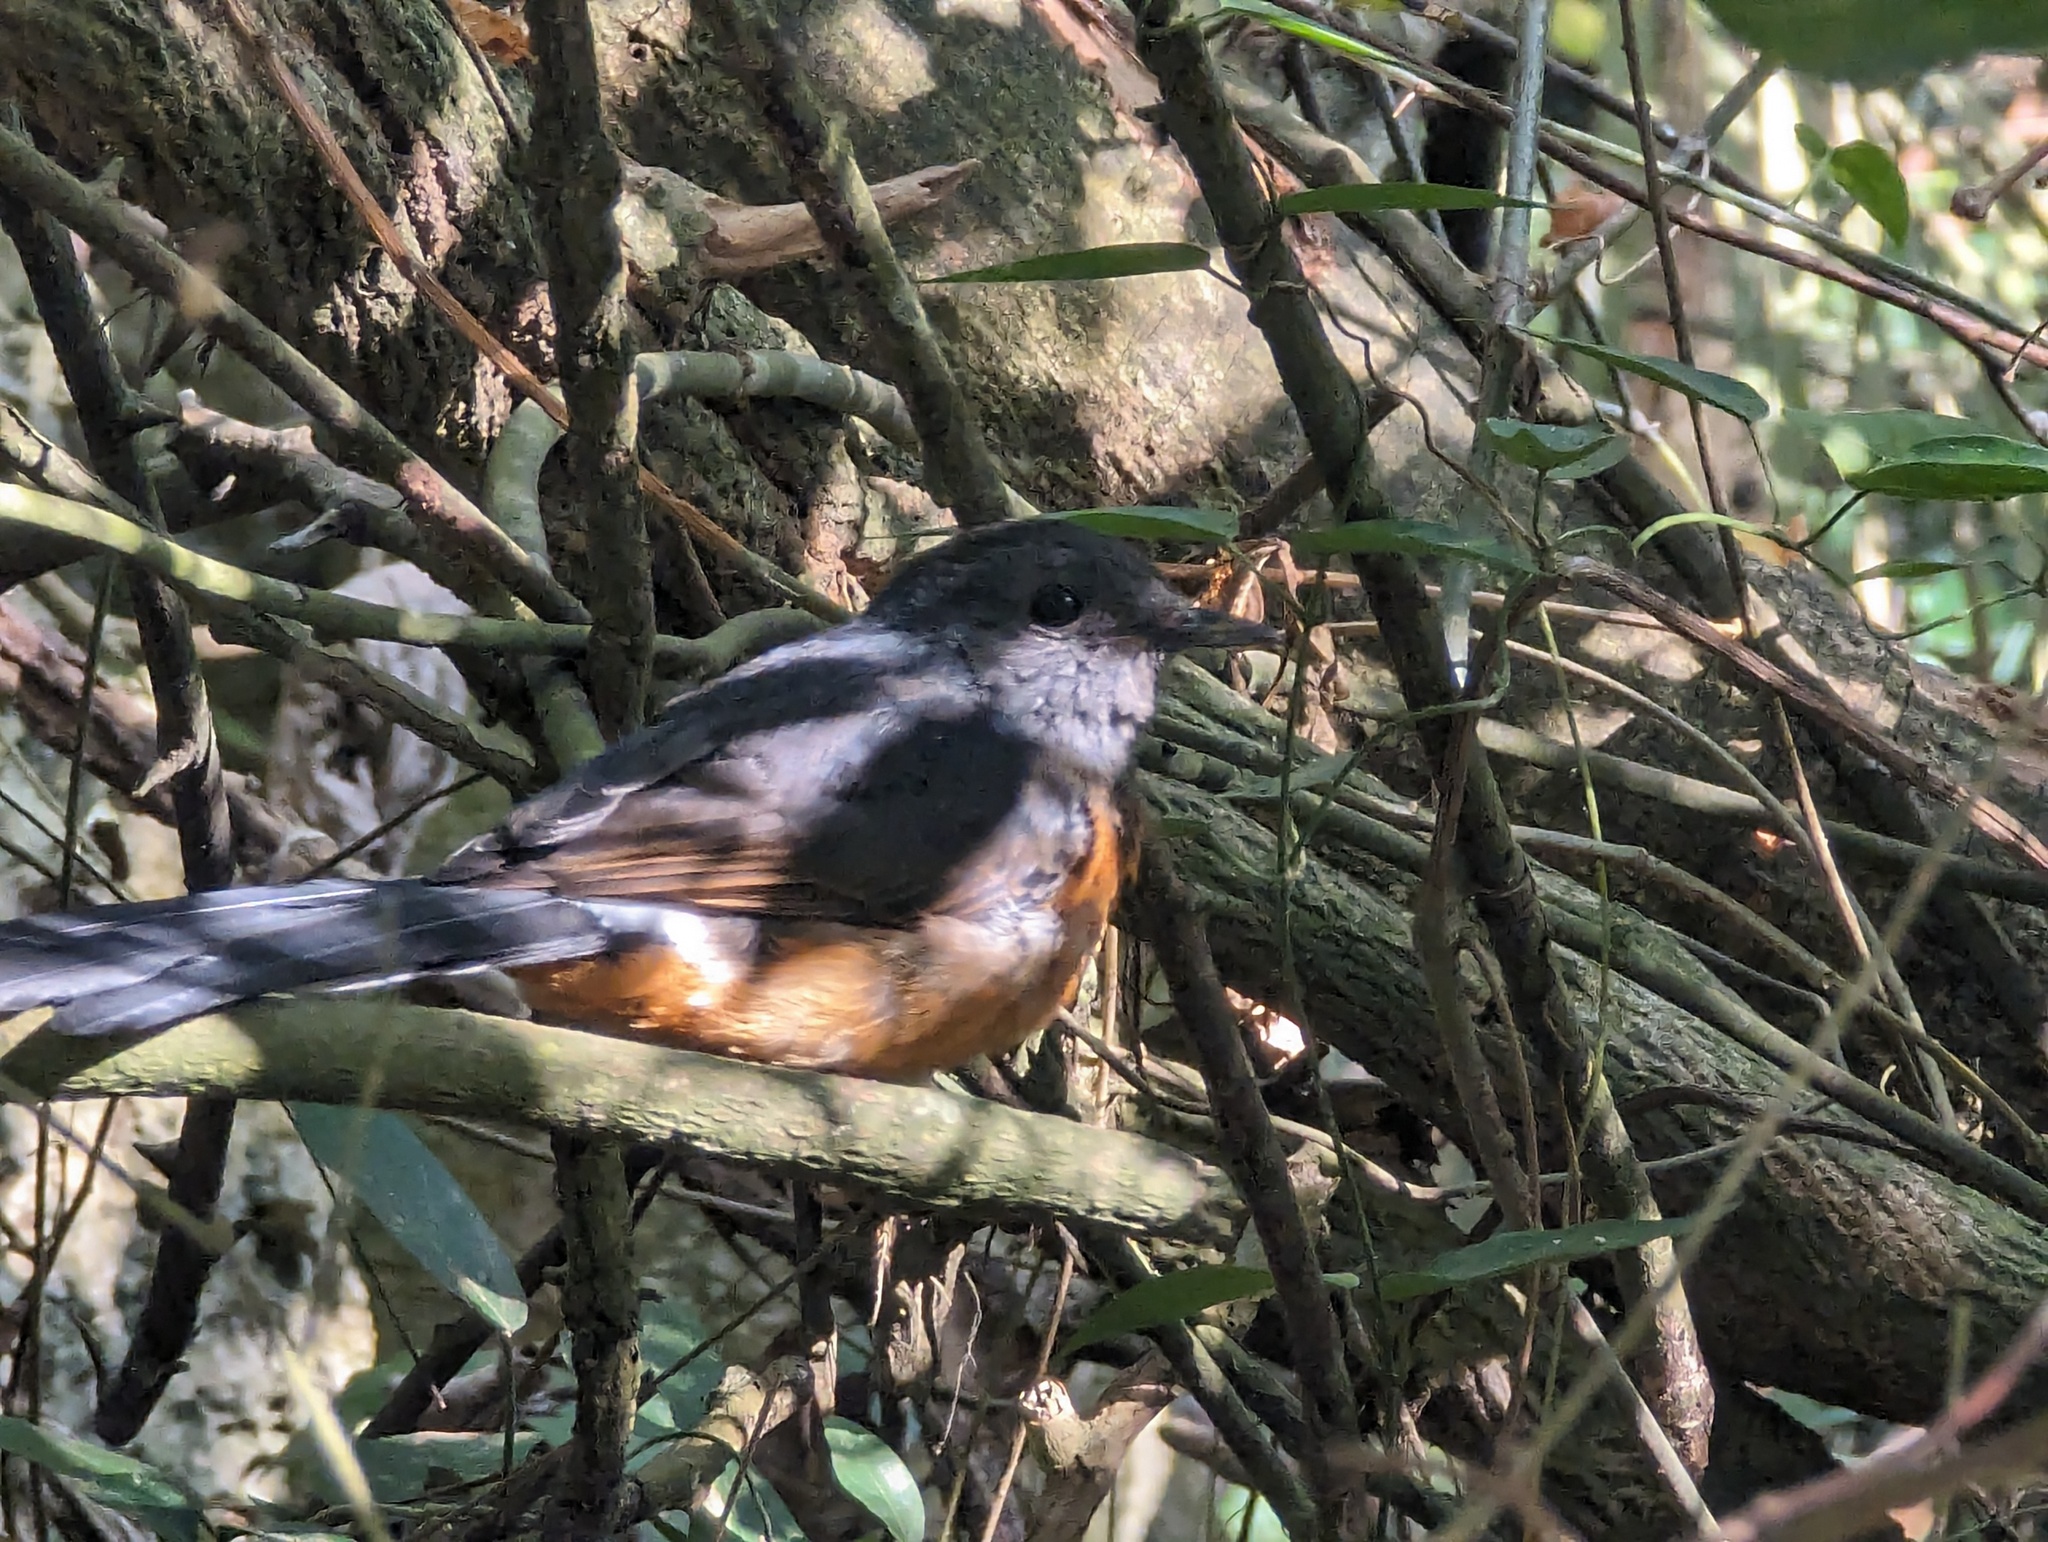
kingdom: Animalia
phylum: Chordata
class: Aves
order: Passeriformes
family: Muscicapidae
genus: Copsychus
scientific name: Copsychus malabaricus
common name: White-rumped shama
